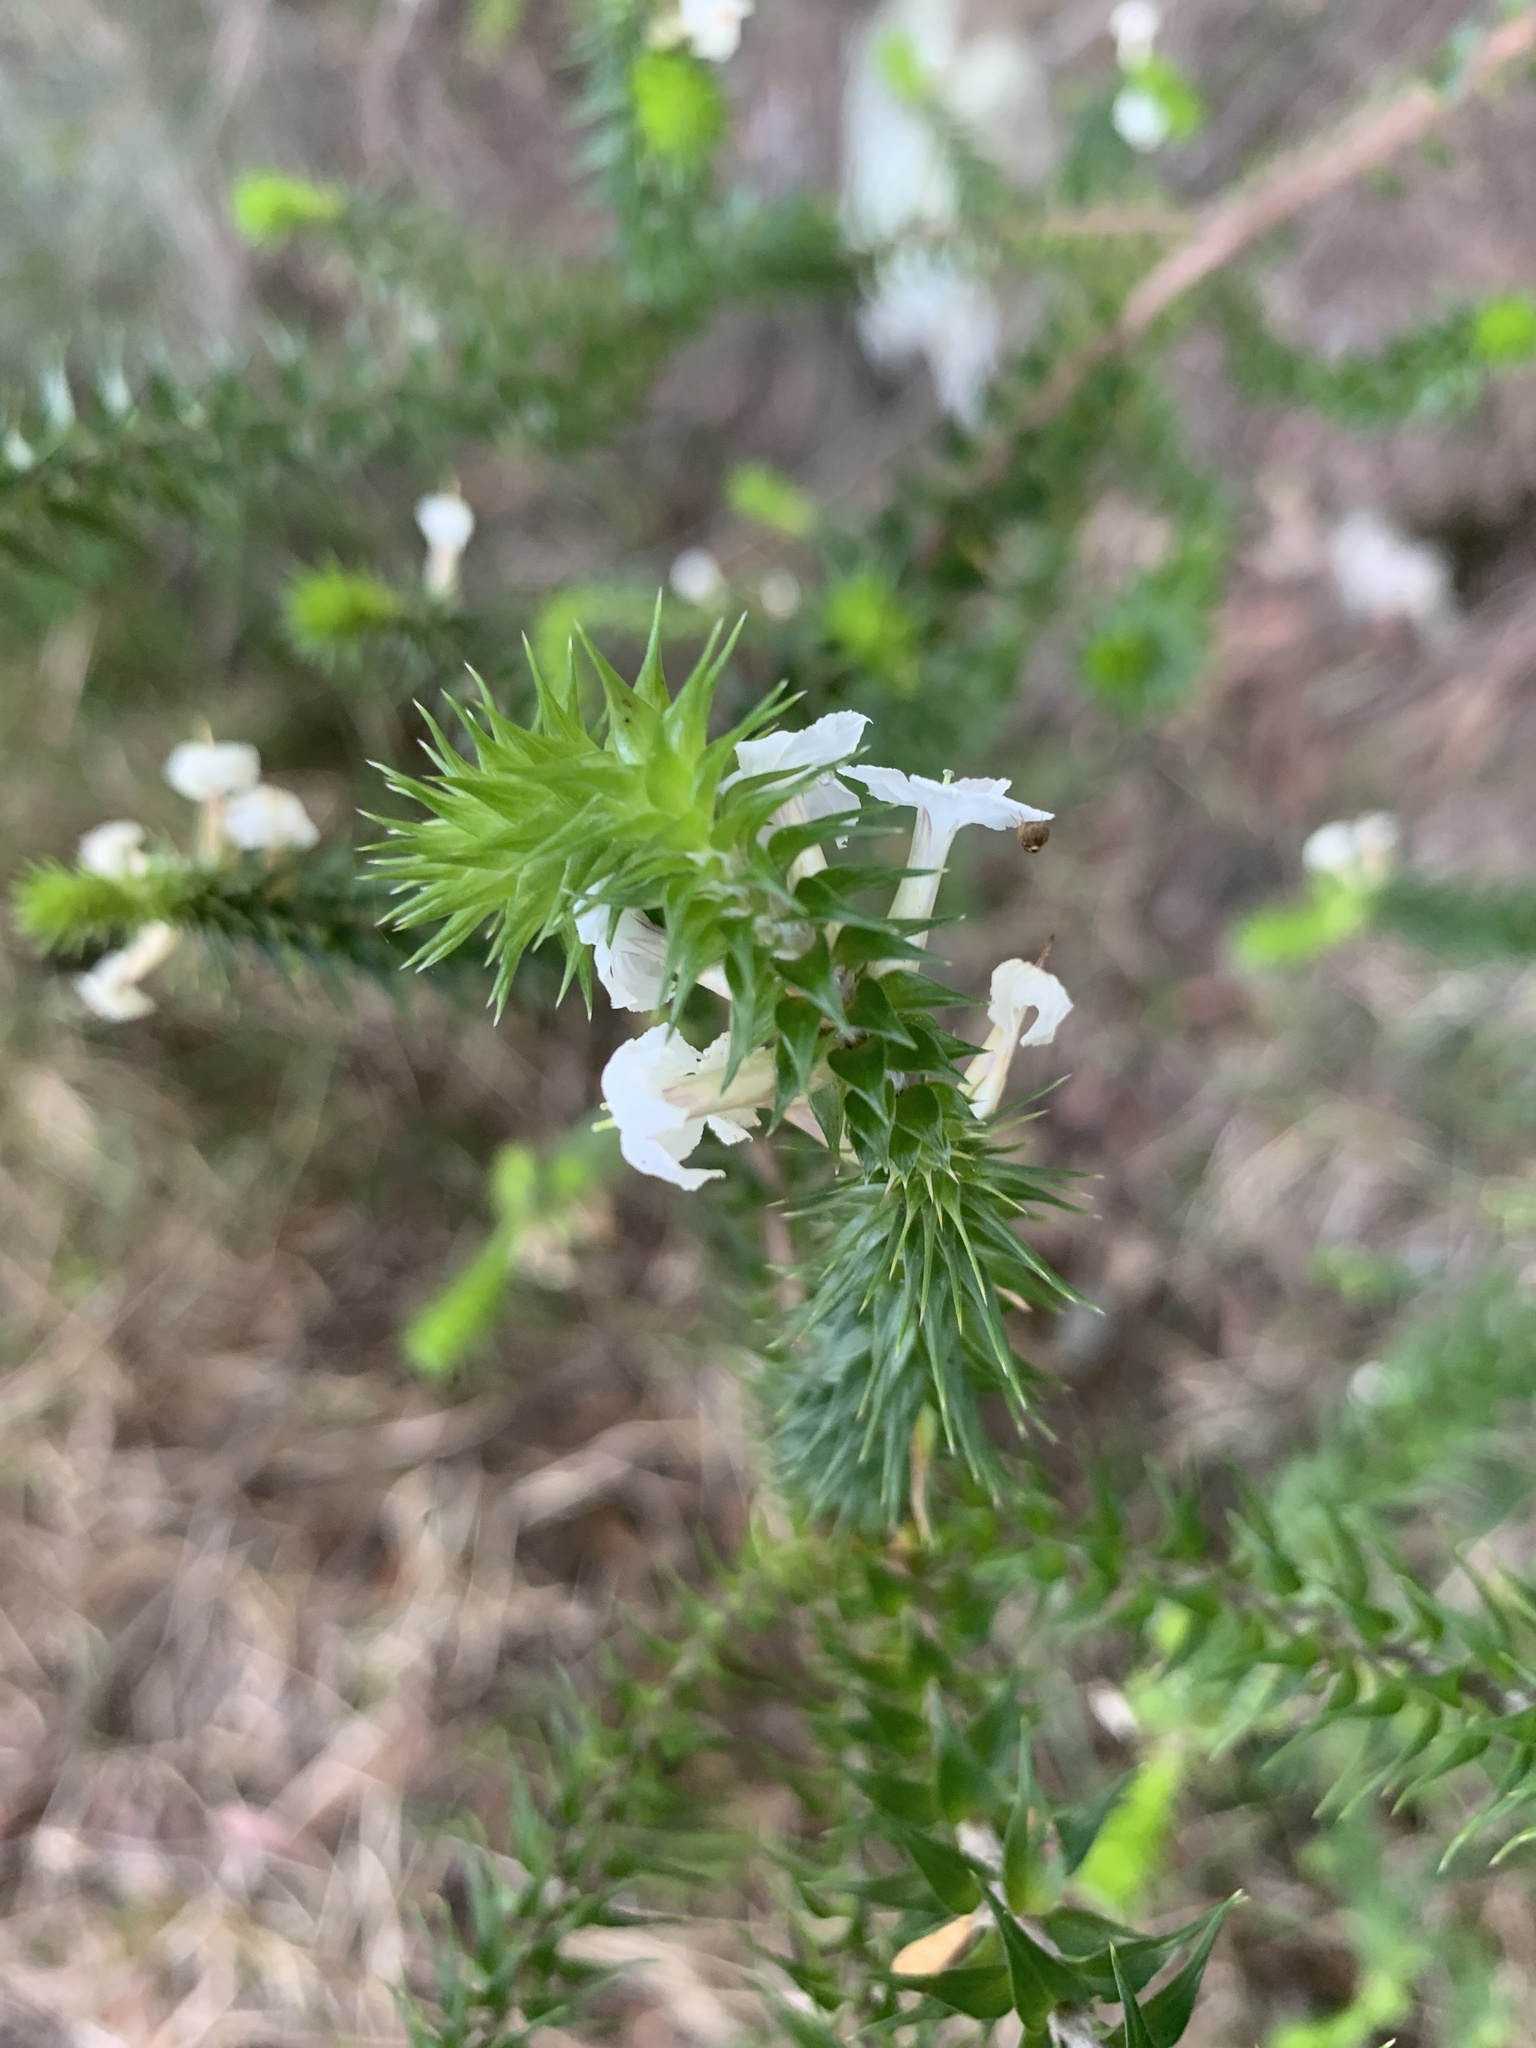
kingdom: Plantae
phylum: Tracheophyta
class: Magnoliopsida
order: Ericales
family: Ericaceae
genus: Woollsia
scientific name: Woollsia pungens
